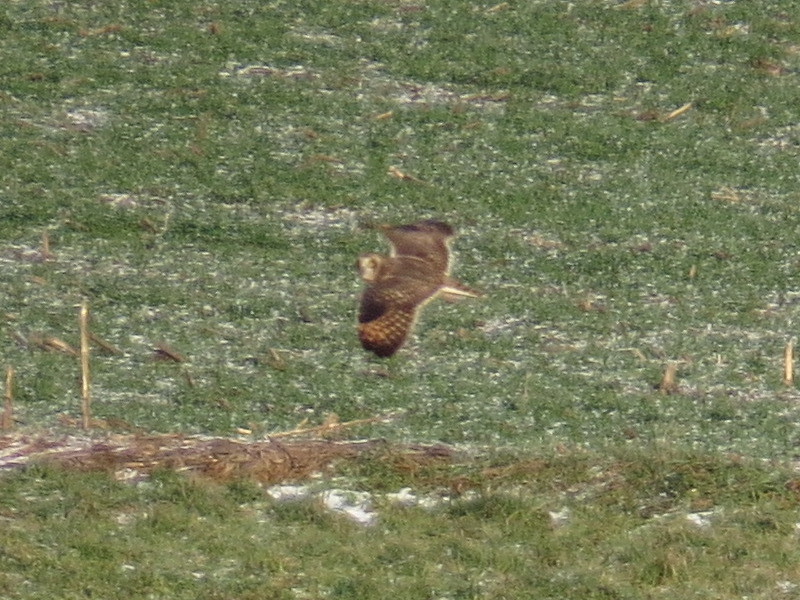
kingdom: Animalia
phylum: Chordata
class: Aves
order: Strigiformes
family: Strigidae
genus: Asio
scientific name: Asio flammeus
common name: Short-eared owl
